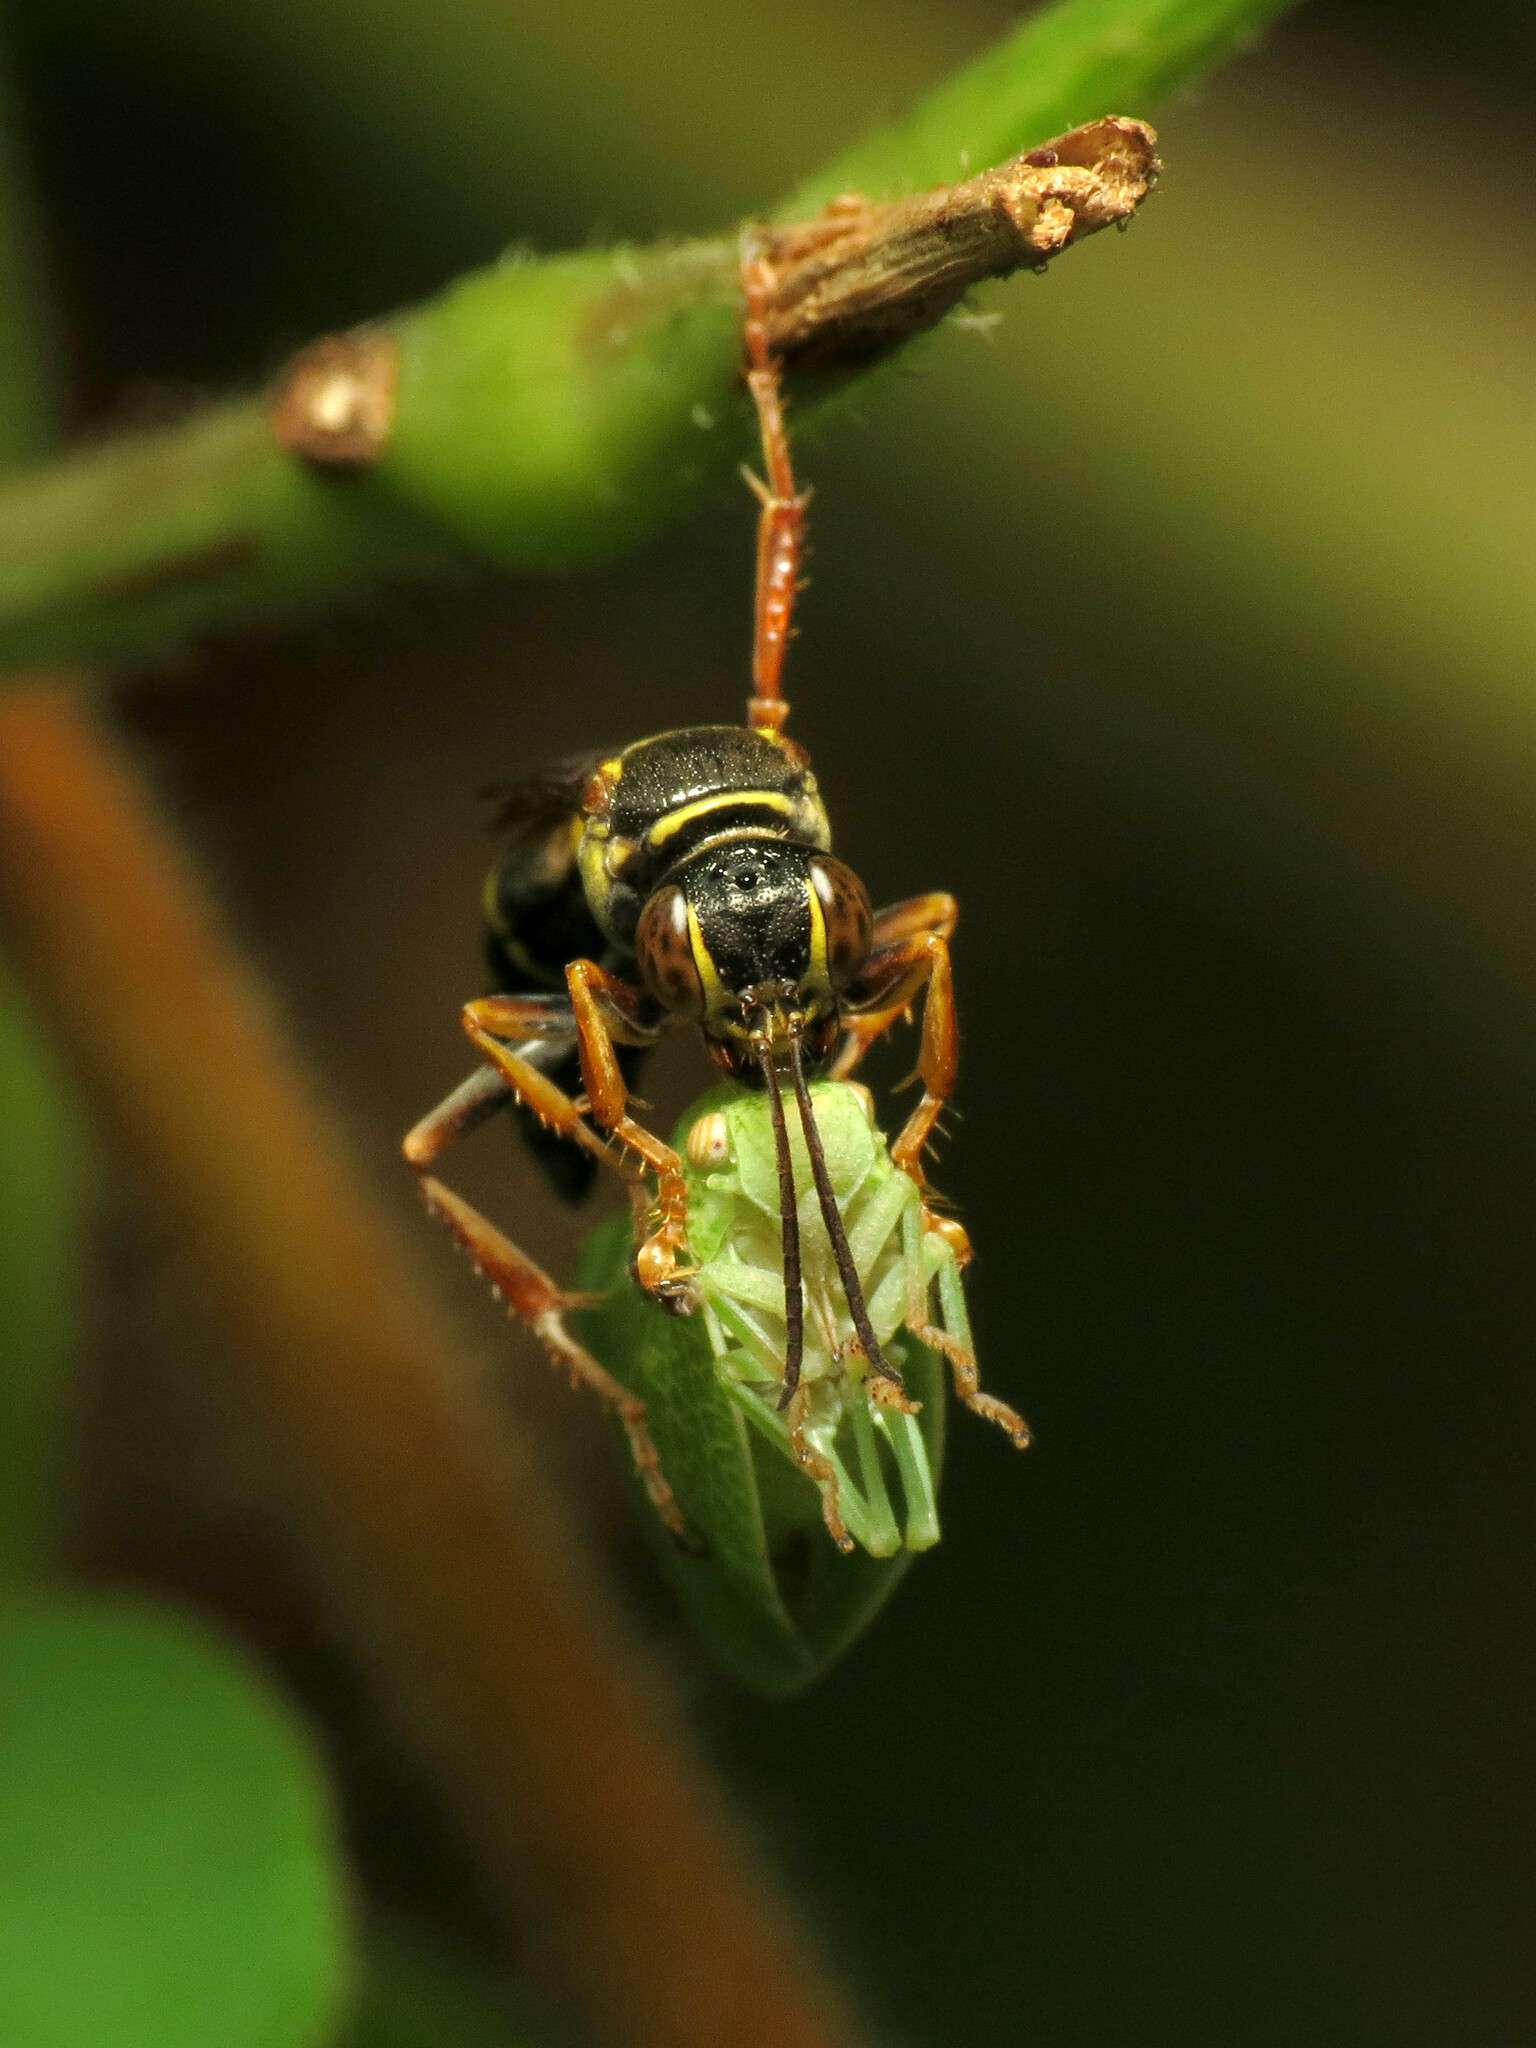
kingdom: Animalia
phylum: Arthropoda
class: Insecta
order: Hymenoptera
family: Crabronidae
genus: Psammaletes
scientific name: Psammaletes mexicanus
